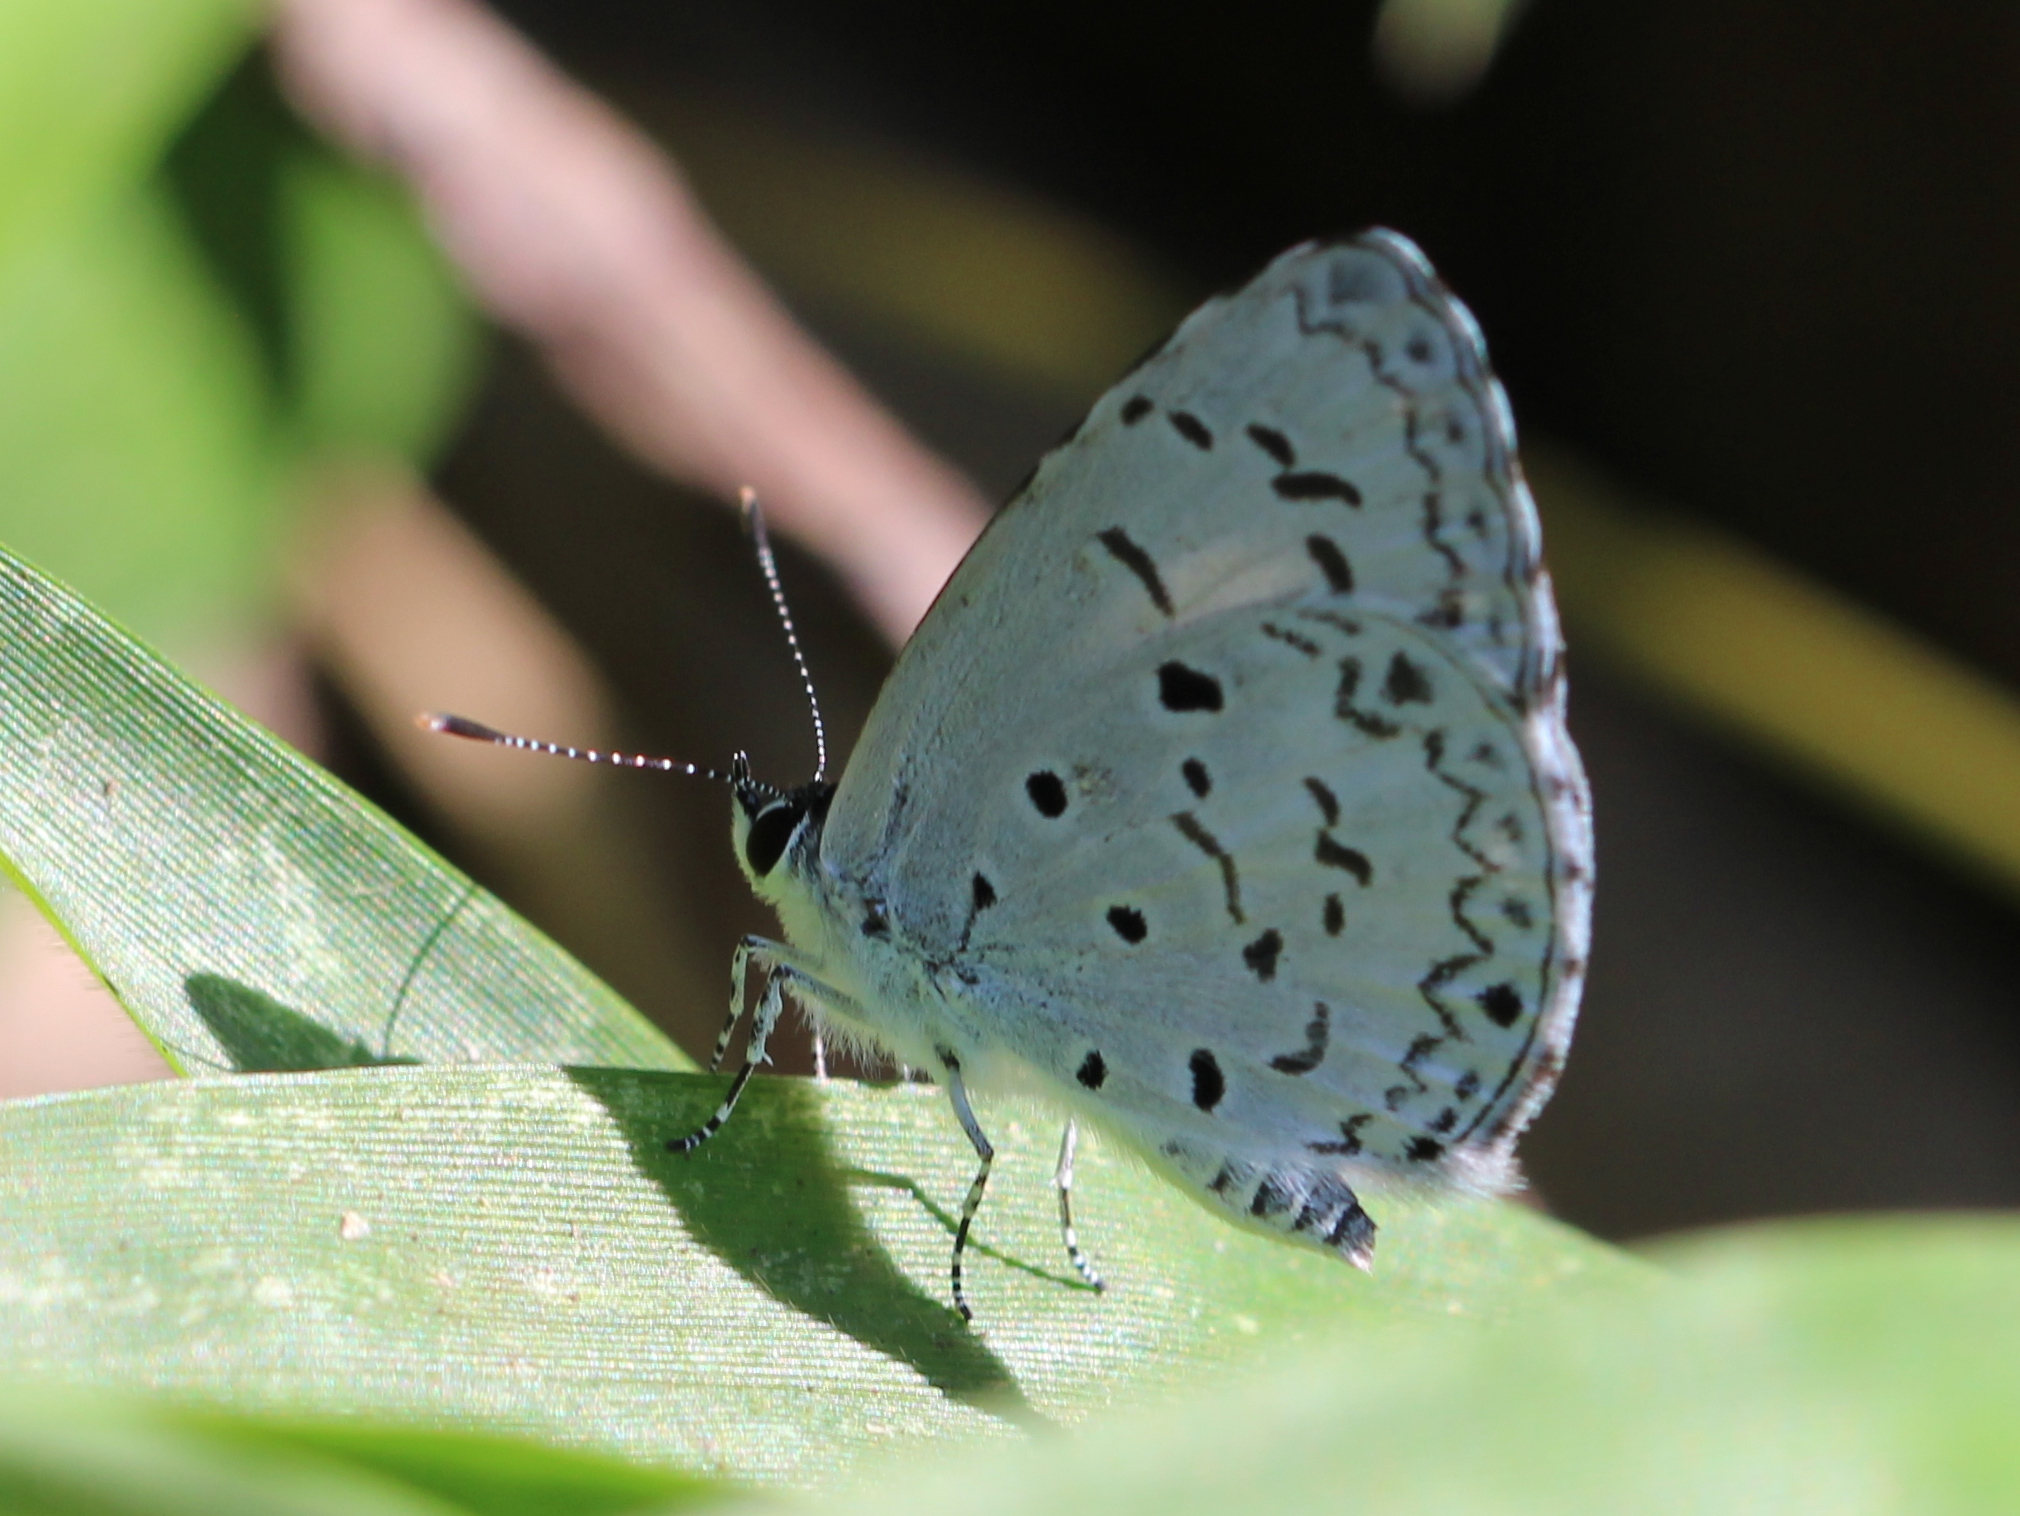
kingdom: Animalia
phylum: Arthropoda
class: Insecta
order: Lepidoptera
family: Lycaenidae
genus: Acytolepis
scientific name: Acytolepis puspa
